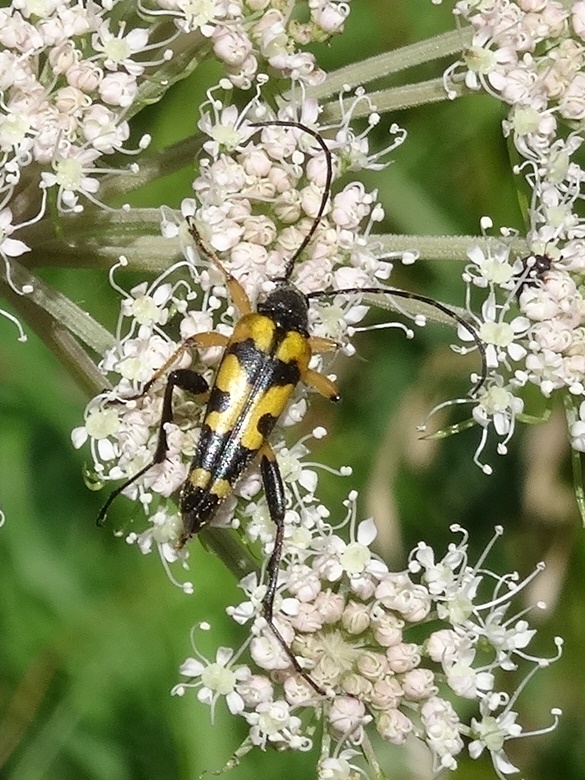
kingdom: Animalia
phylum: Arthropoda
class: Insecta
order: Coleoptera
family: Cerambycidae
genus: Rutpela
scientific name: Rutpela maculata
